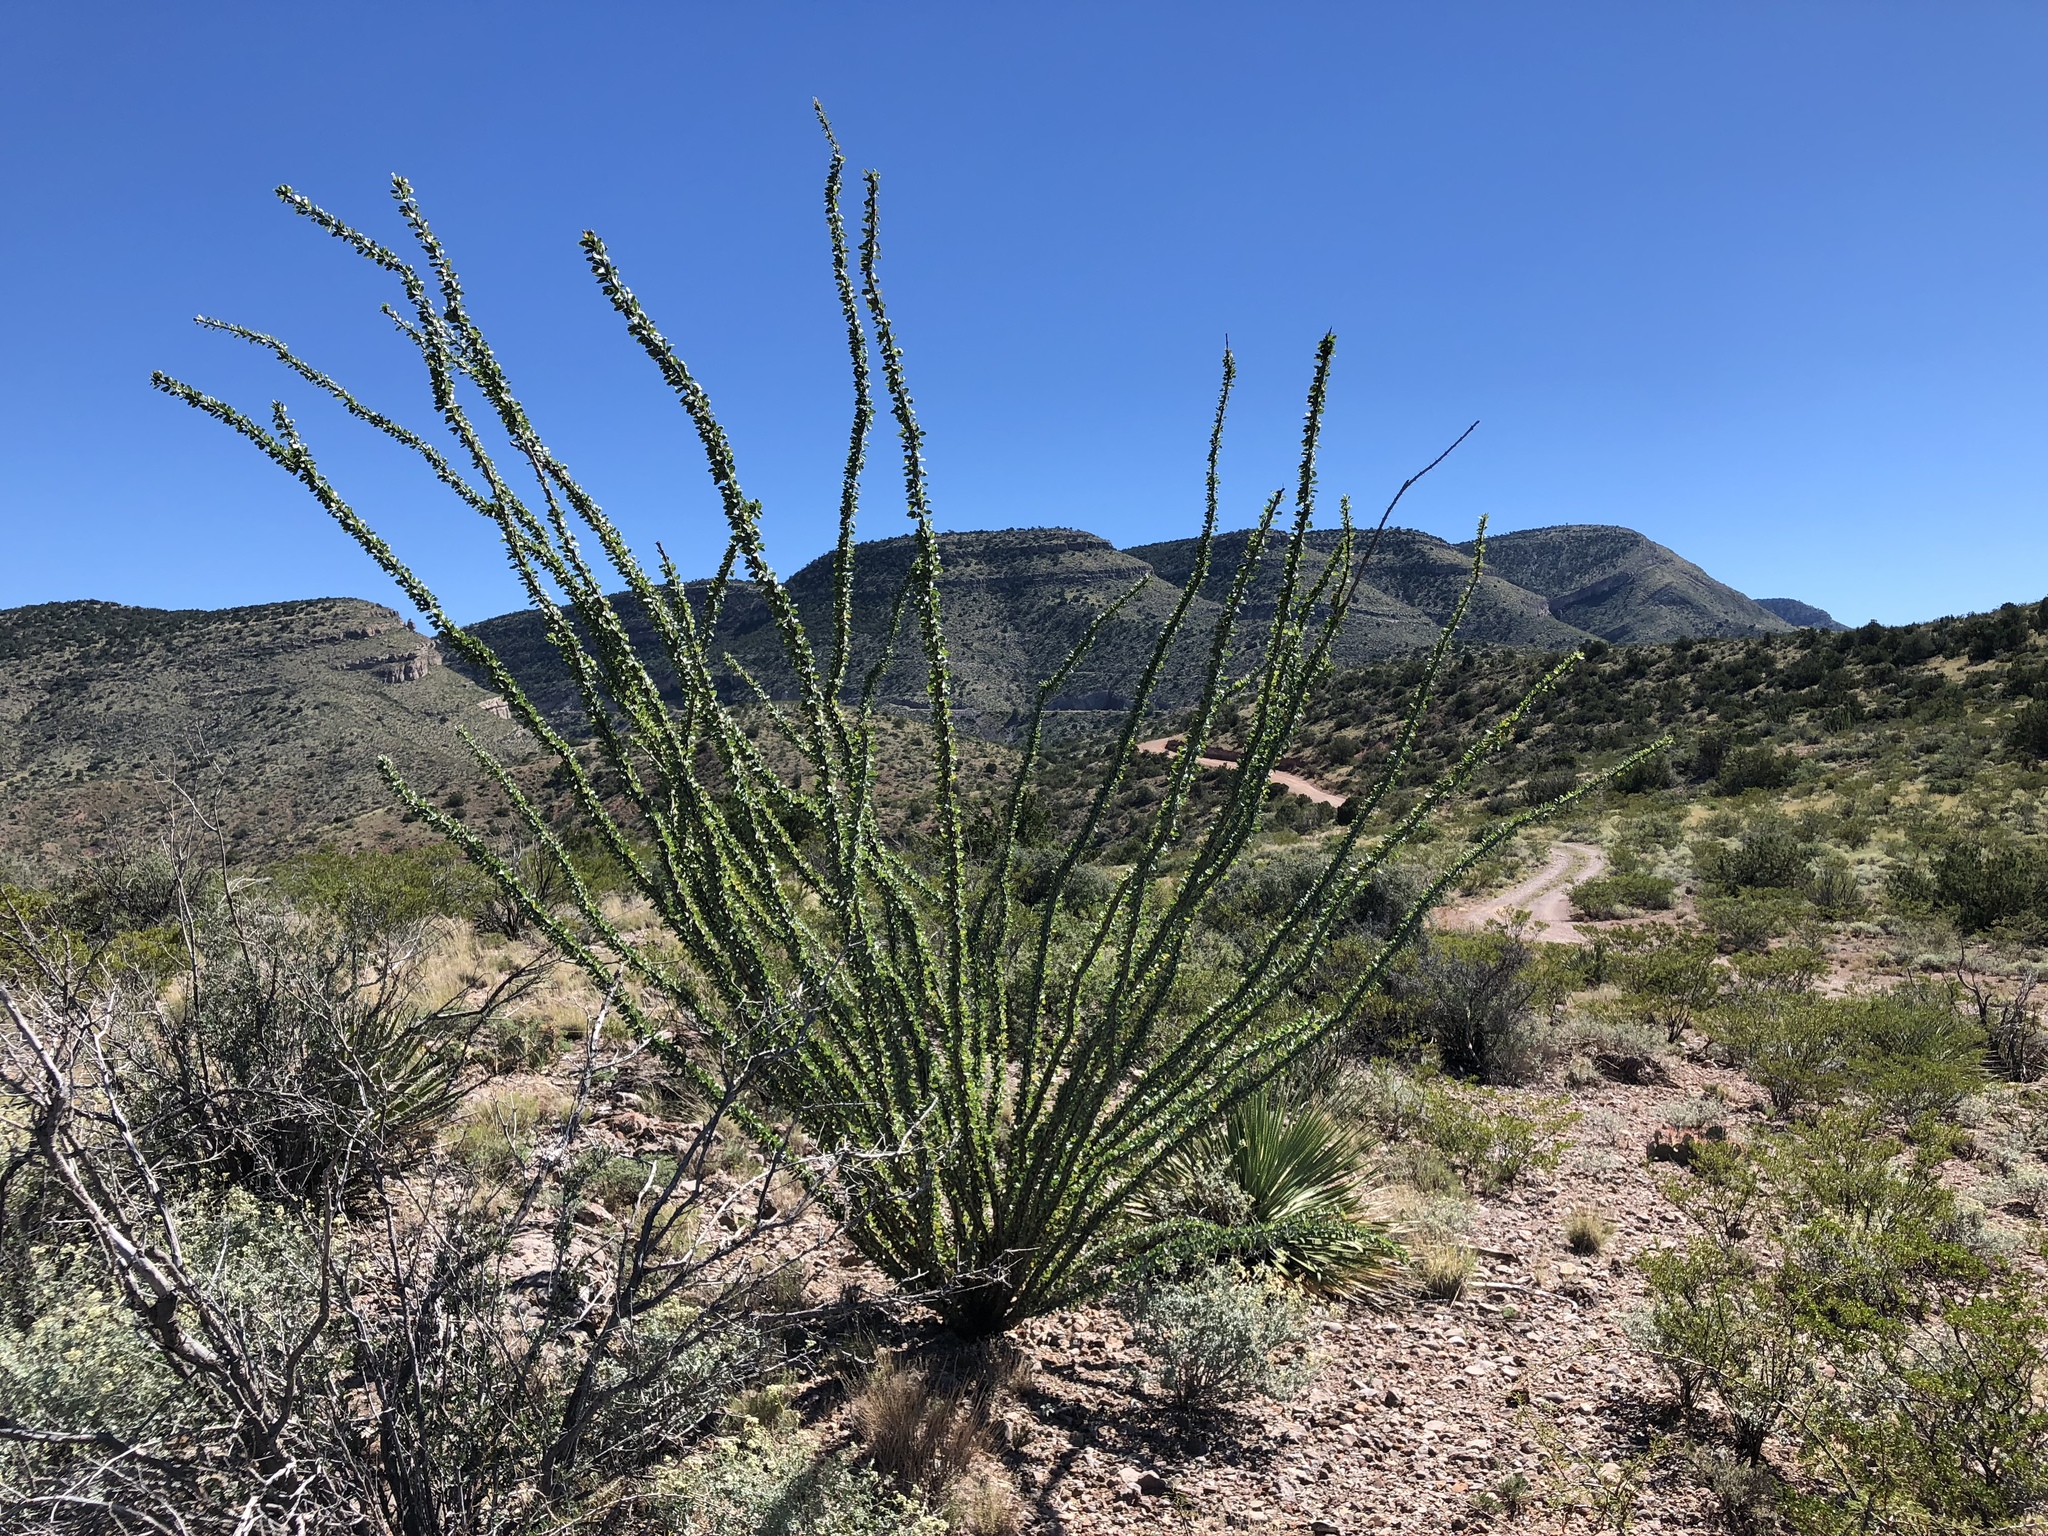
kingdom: Plantae
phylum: Tracheophyta
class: Magnoliopsida
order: Ericales
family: Fouquieriaceae
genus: Fouquieria
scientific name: Fouquieria splendens
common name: Vine-cactus
